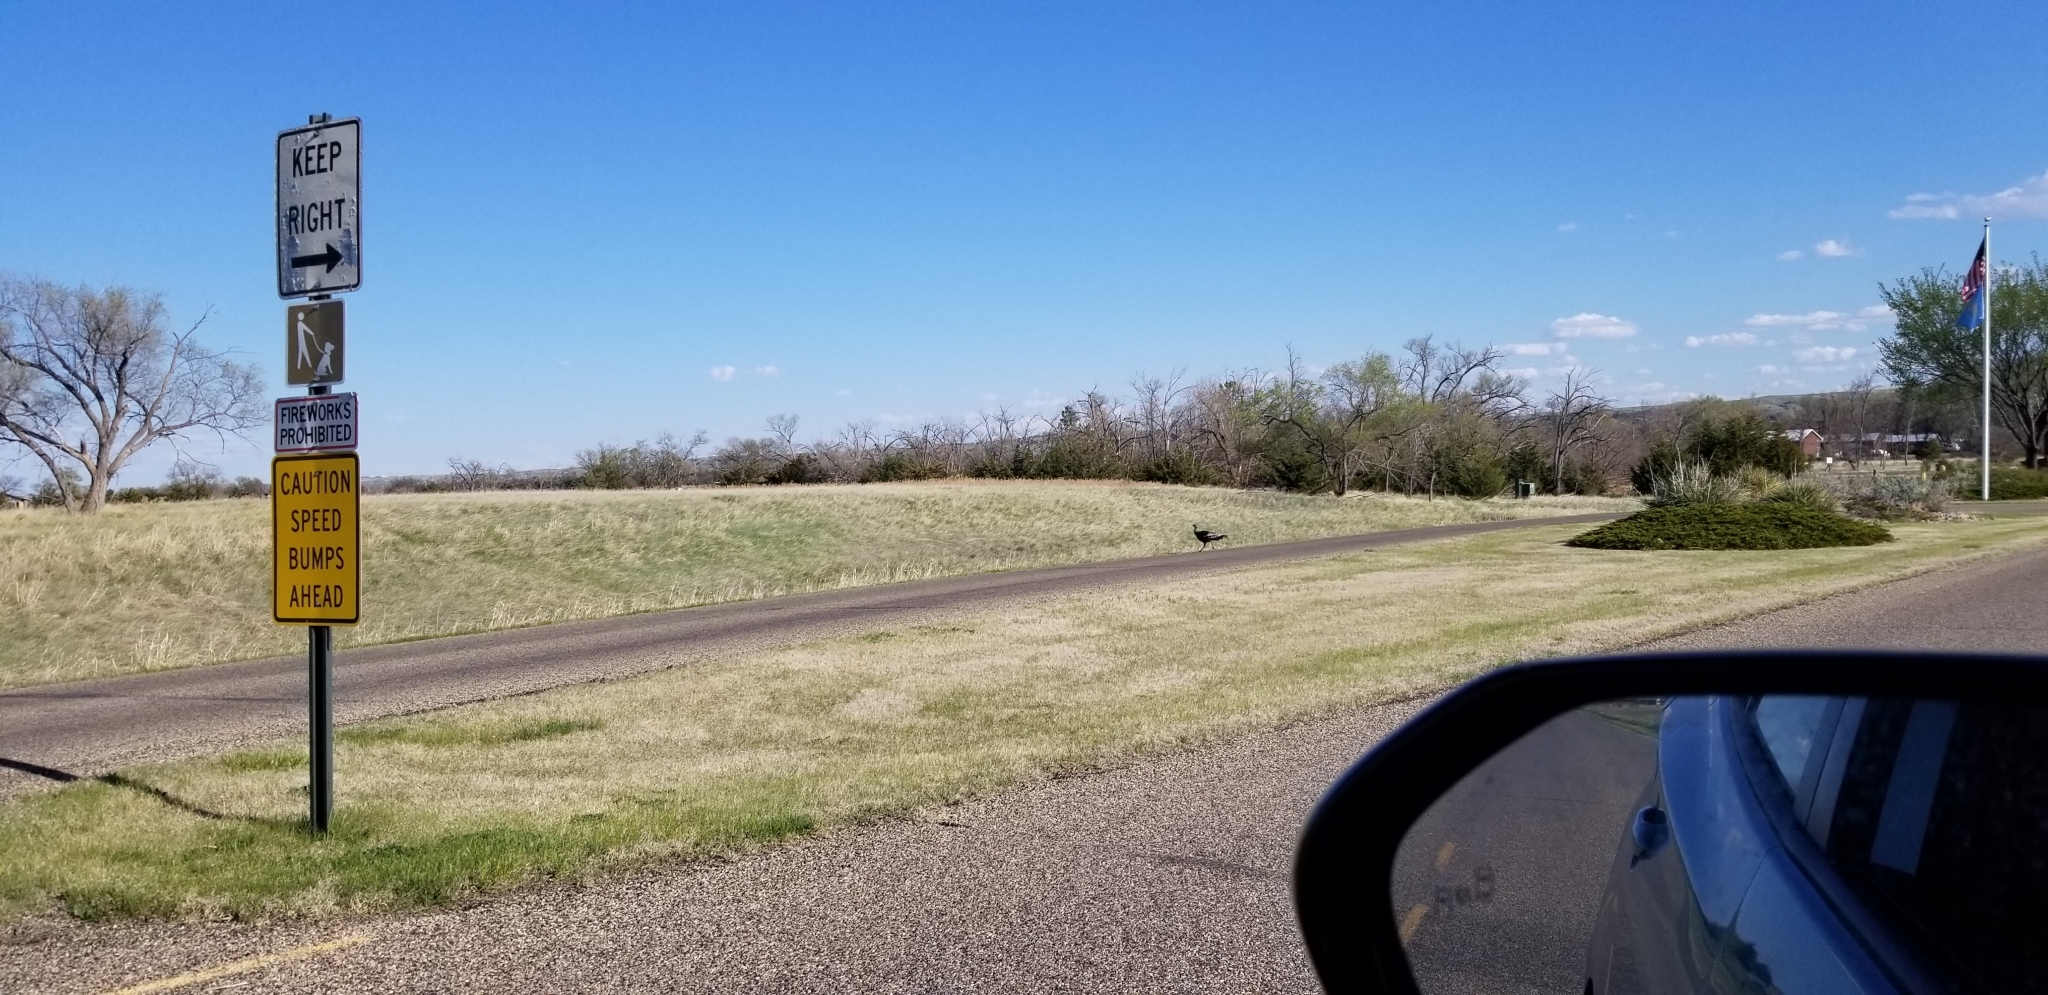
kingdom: Animalia
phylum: Chordata
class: Aves
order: Galliformes
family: Phasianidae
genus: Meleagris
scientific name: Meleagris gallopavo
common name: Wild turkey
